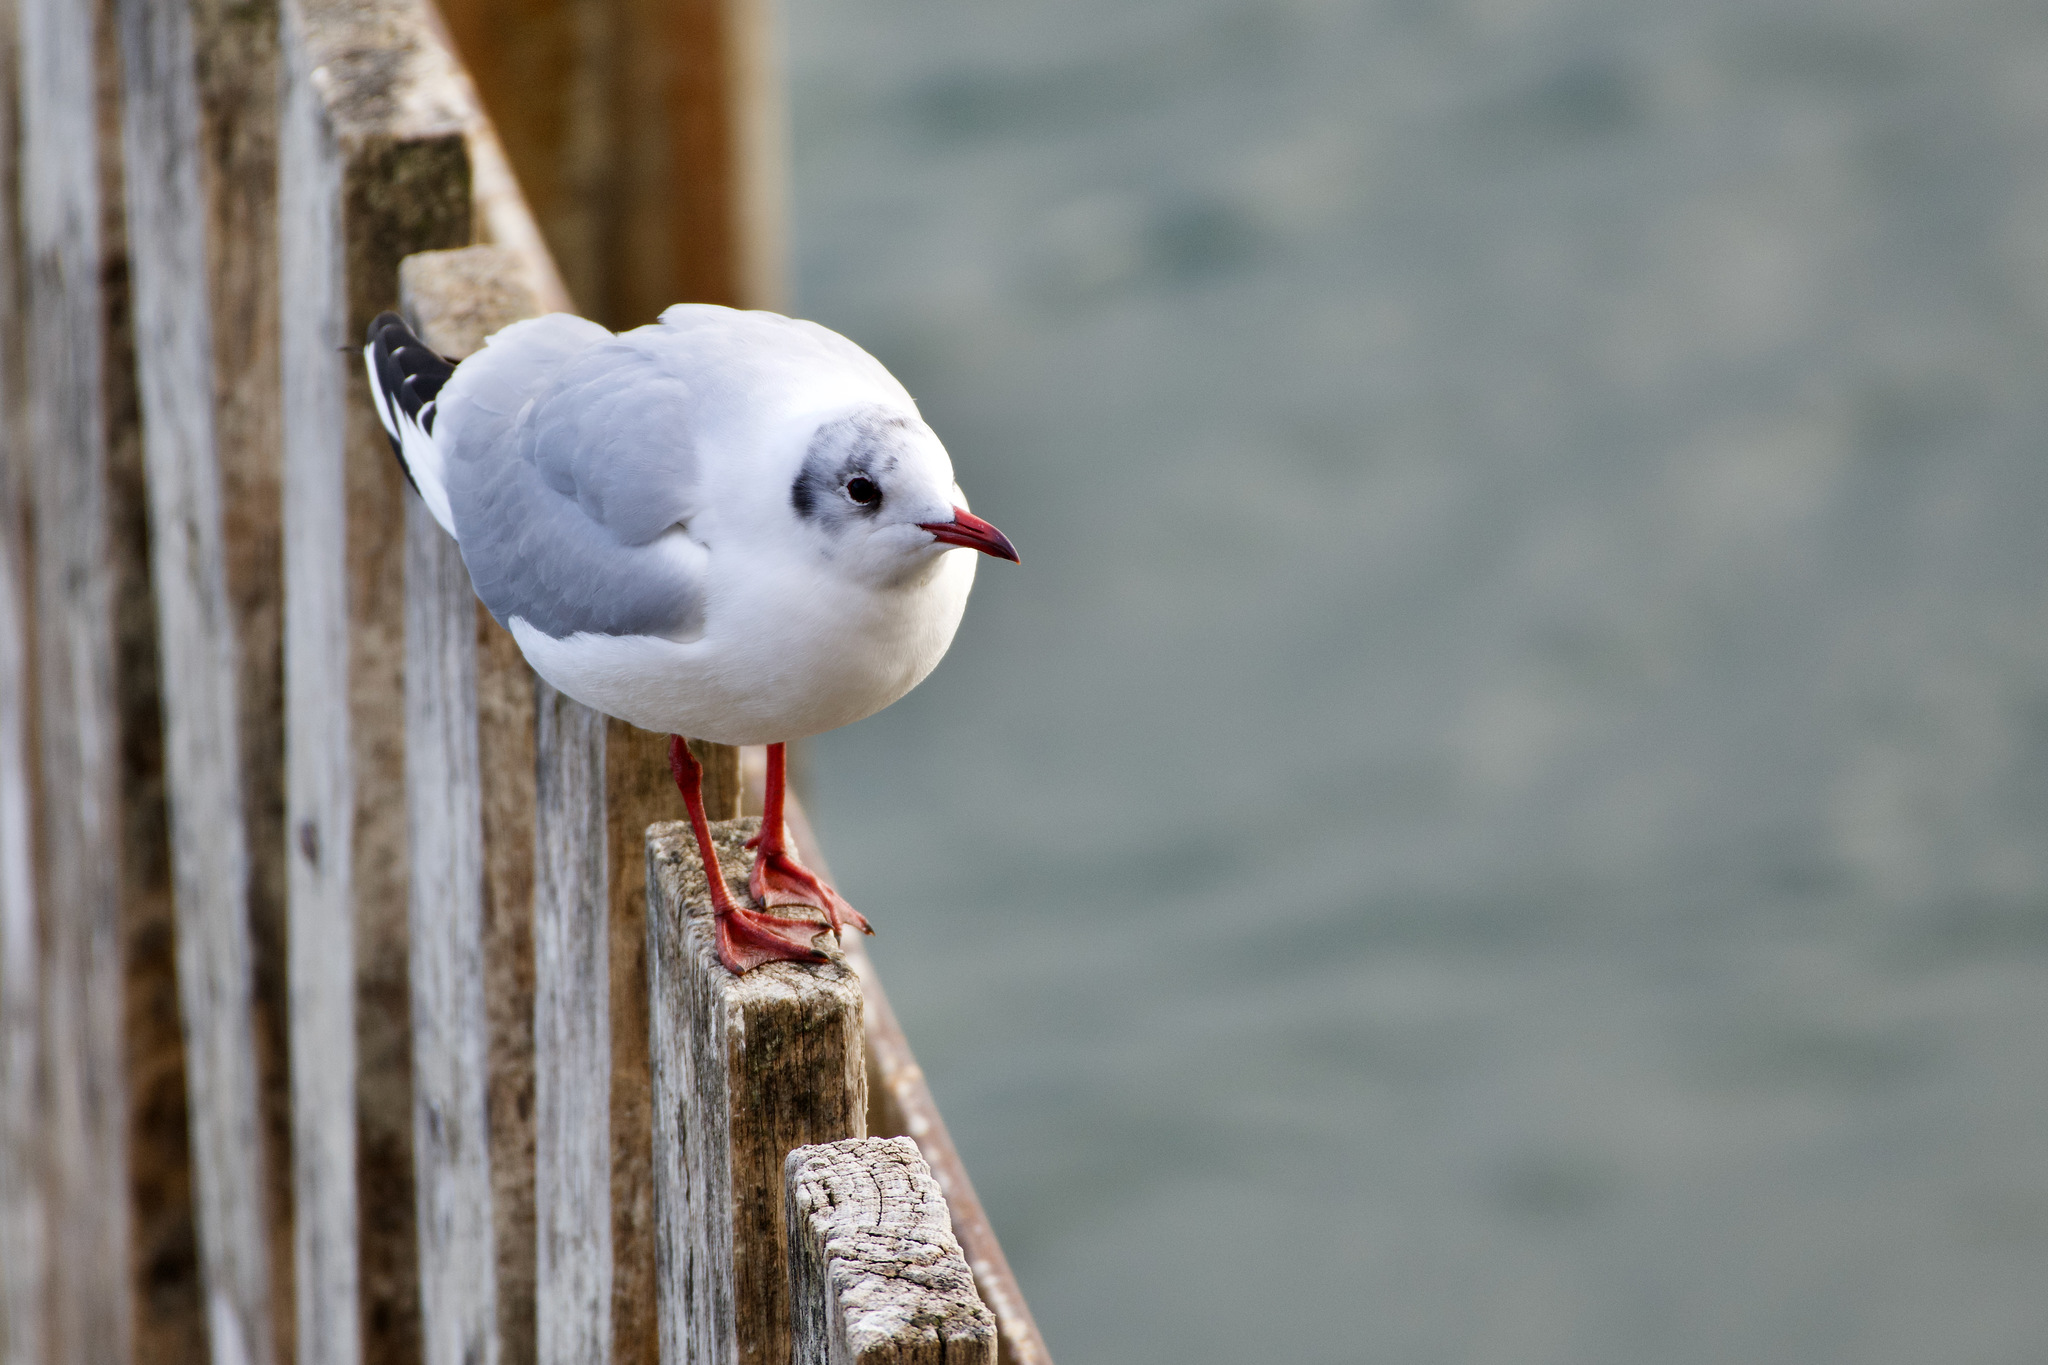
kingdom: Animalia
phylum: Chordata
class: Aves
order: Charadriiformes
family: Laridae
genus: Chroicocephalus
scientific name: Chroicocephalus ridibundus
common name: Black-headed gull
